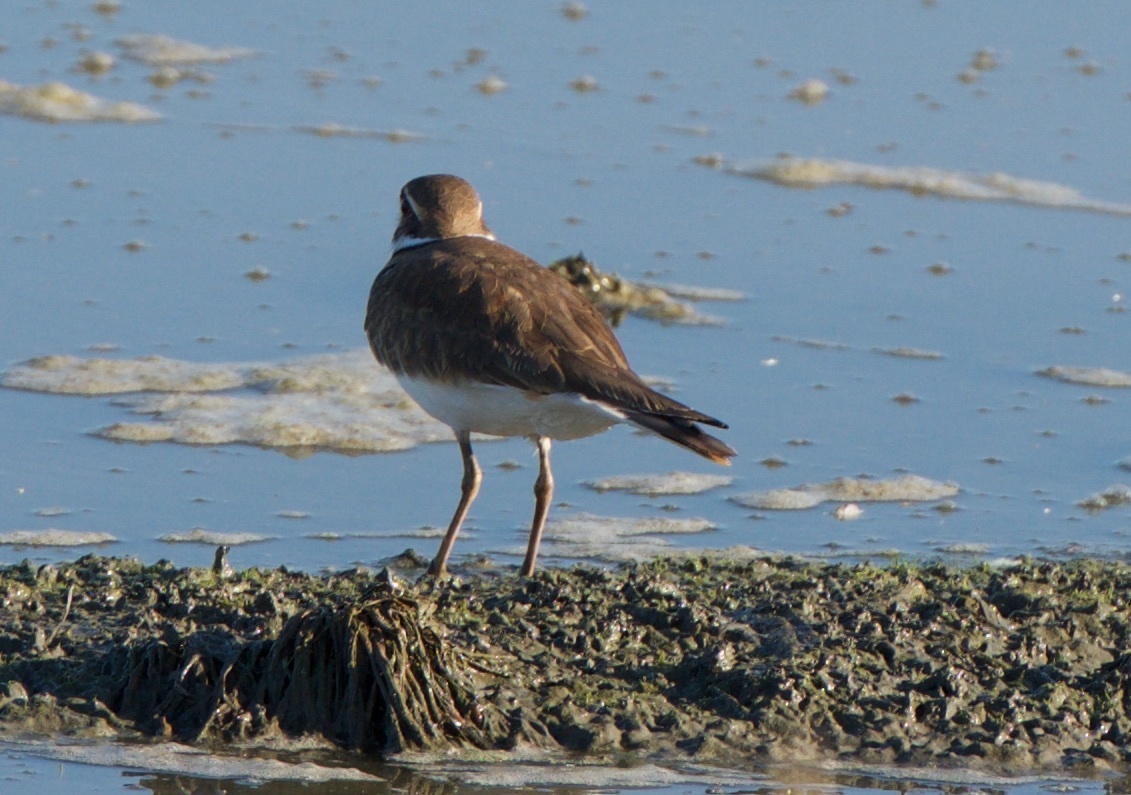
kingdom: Animalia
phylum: Chordata
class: Aves
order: Charadriiformes
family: Charadriidae
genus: Charadrius
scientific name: Charadrius vociferus
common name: Killdeer
